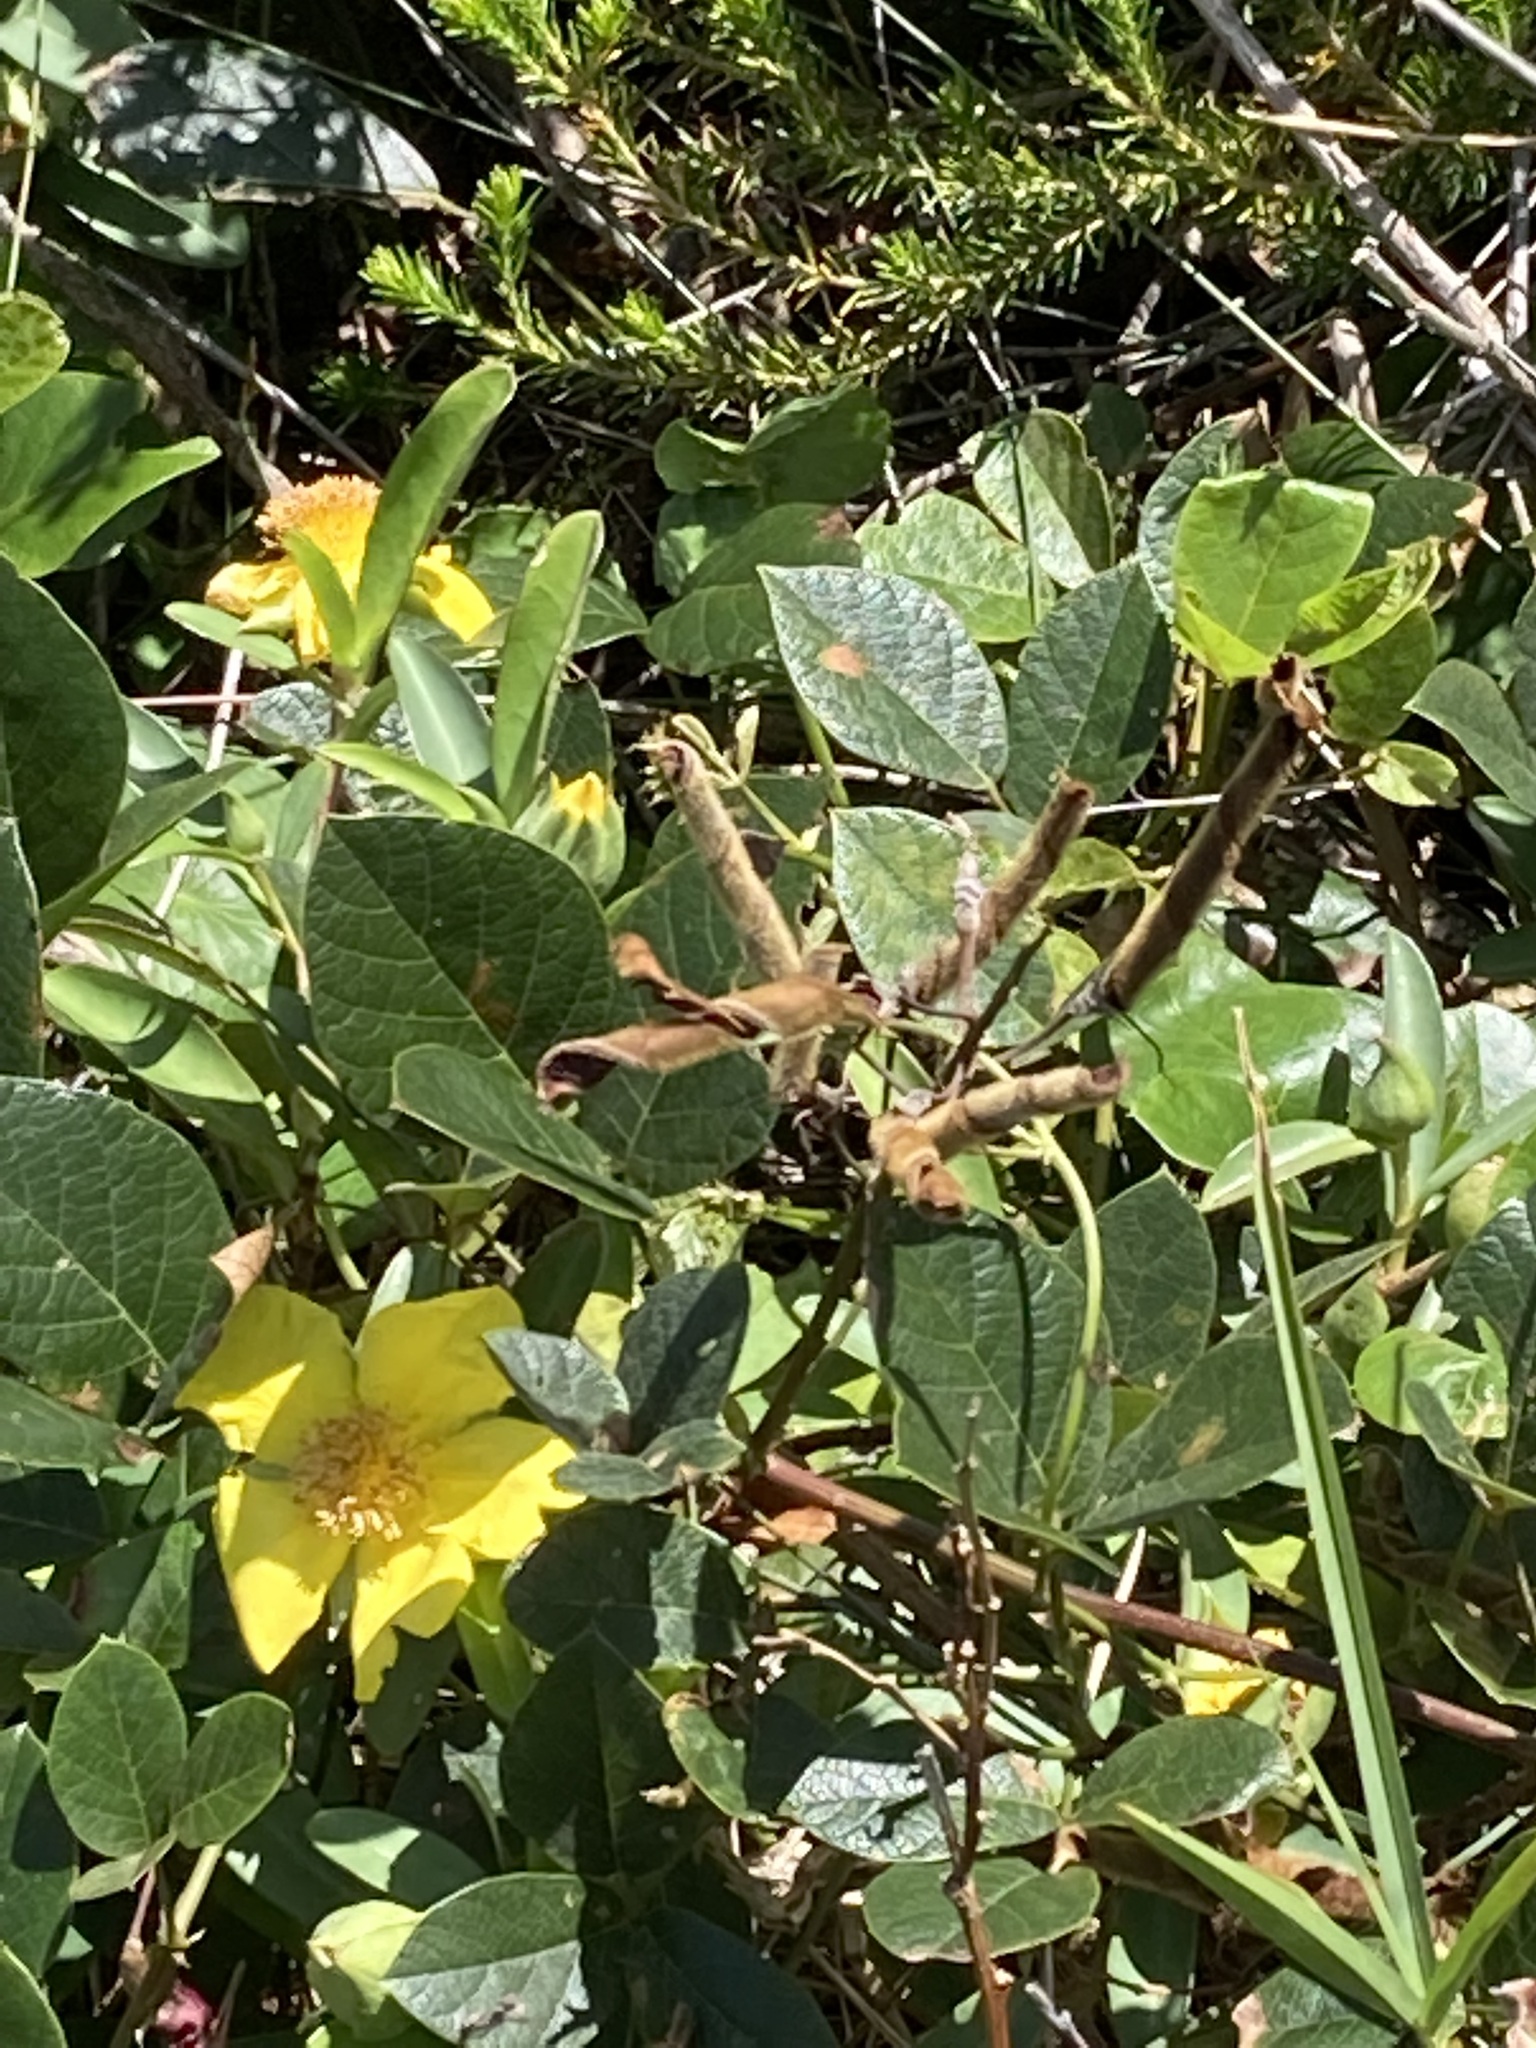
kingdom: Plantae
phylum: Tracheophyta
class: Magnoliopsida
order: Dilleniales
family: Dilleniaceae
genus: Hibbertia
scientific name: Hibbertia scandens
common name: Climbing guinea-flower
